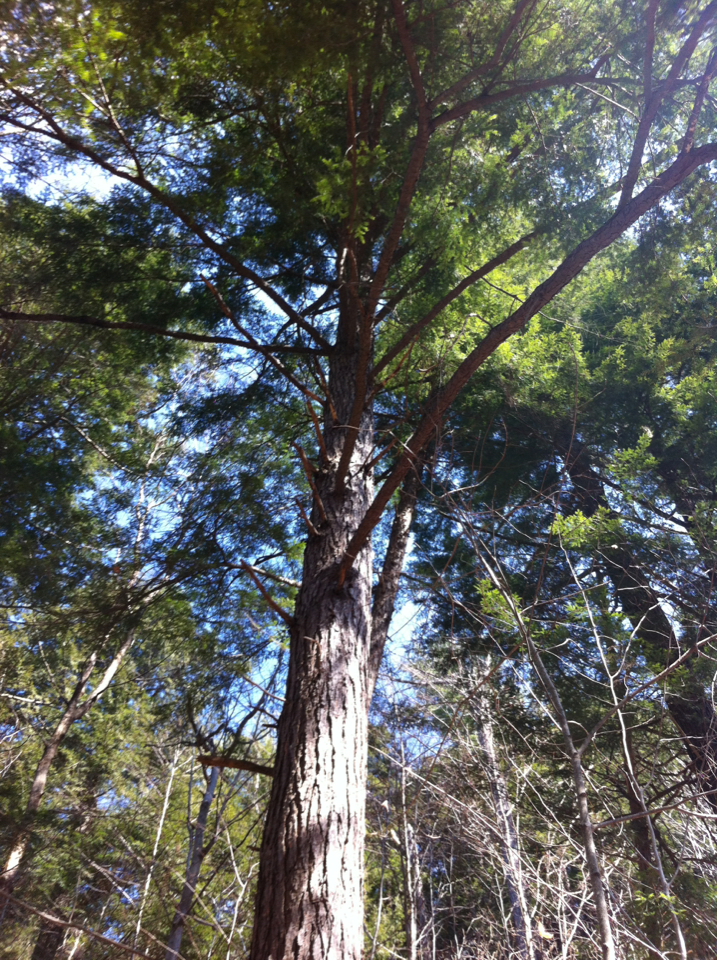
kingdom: Plantae
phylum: Tracheophyta
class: Pinopsida
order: Pinales
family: Pinaceae
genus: Tsuga
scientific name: Tsuga canadensis
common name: Eastern hemlock
